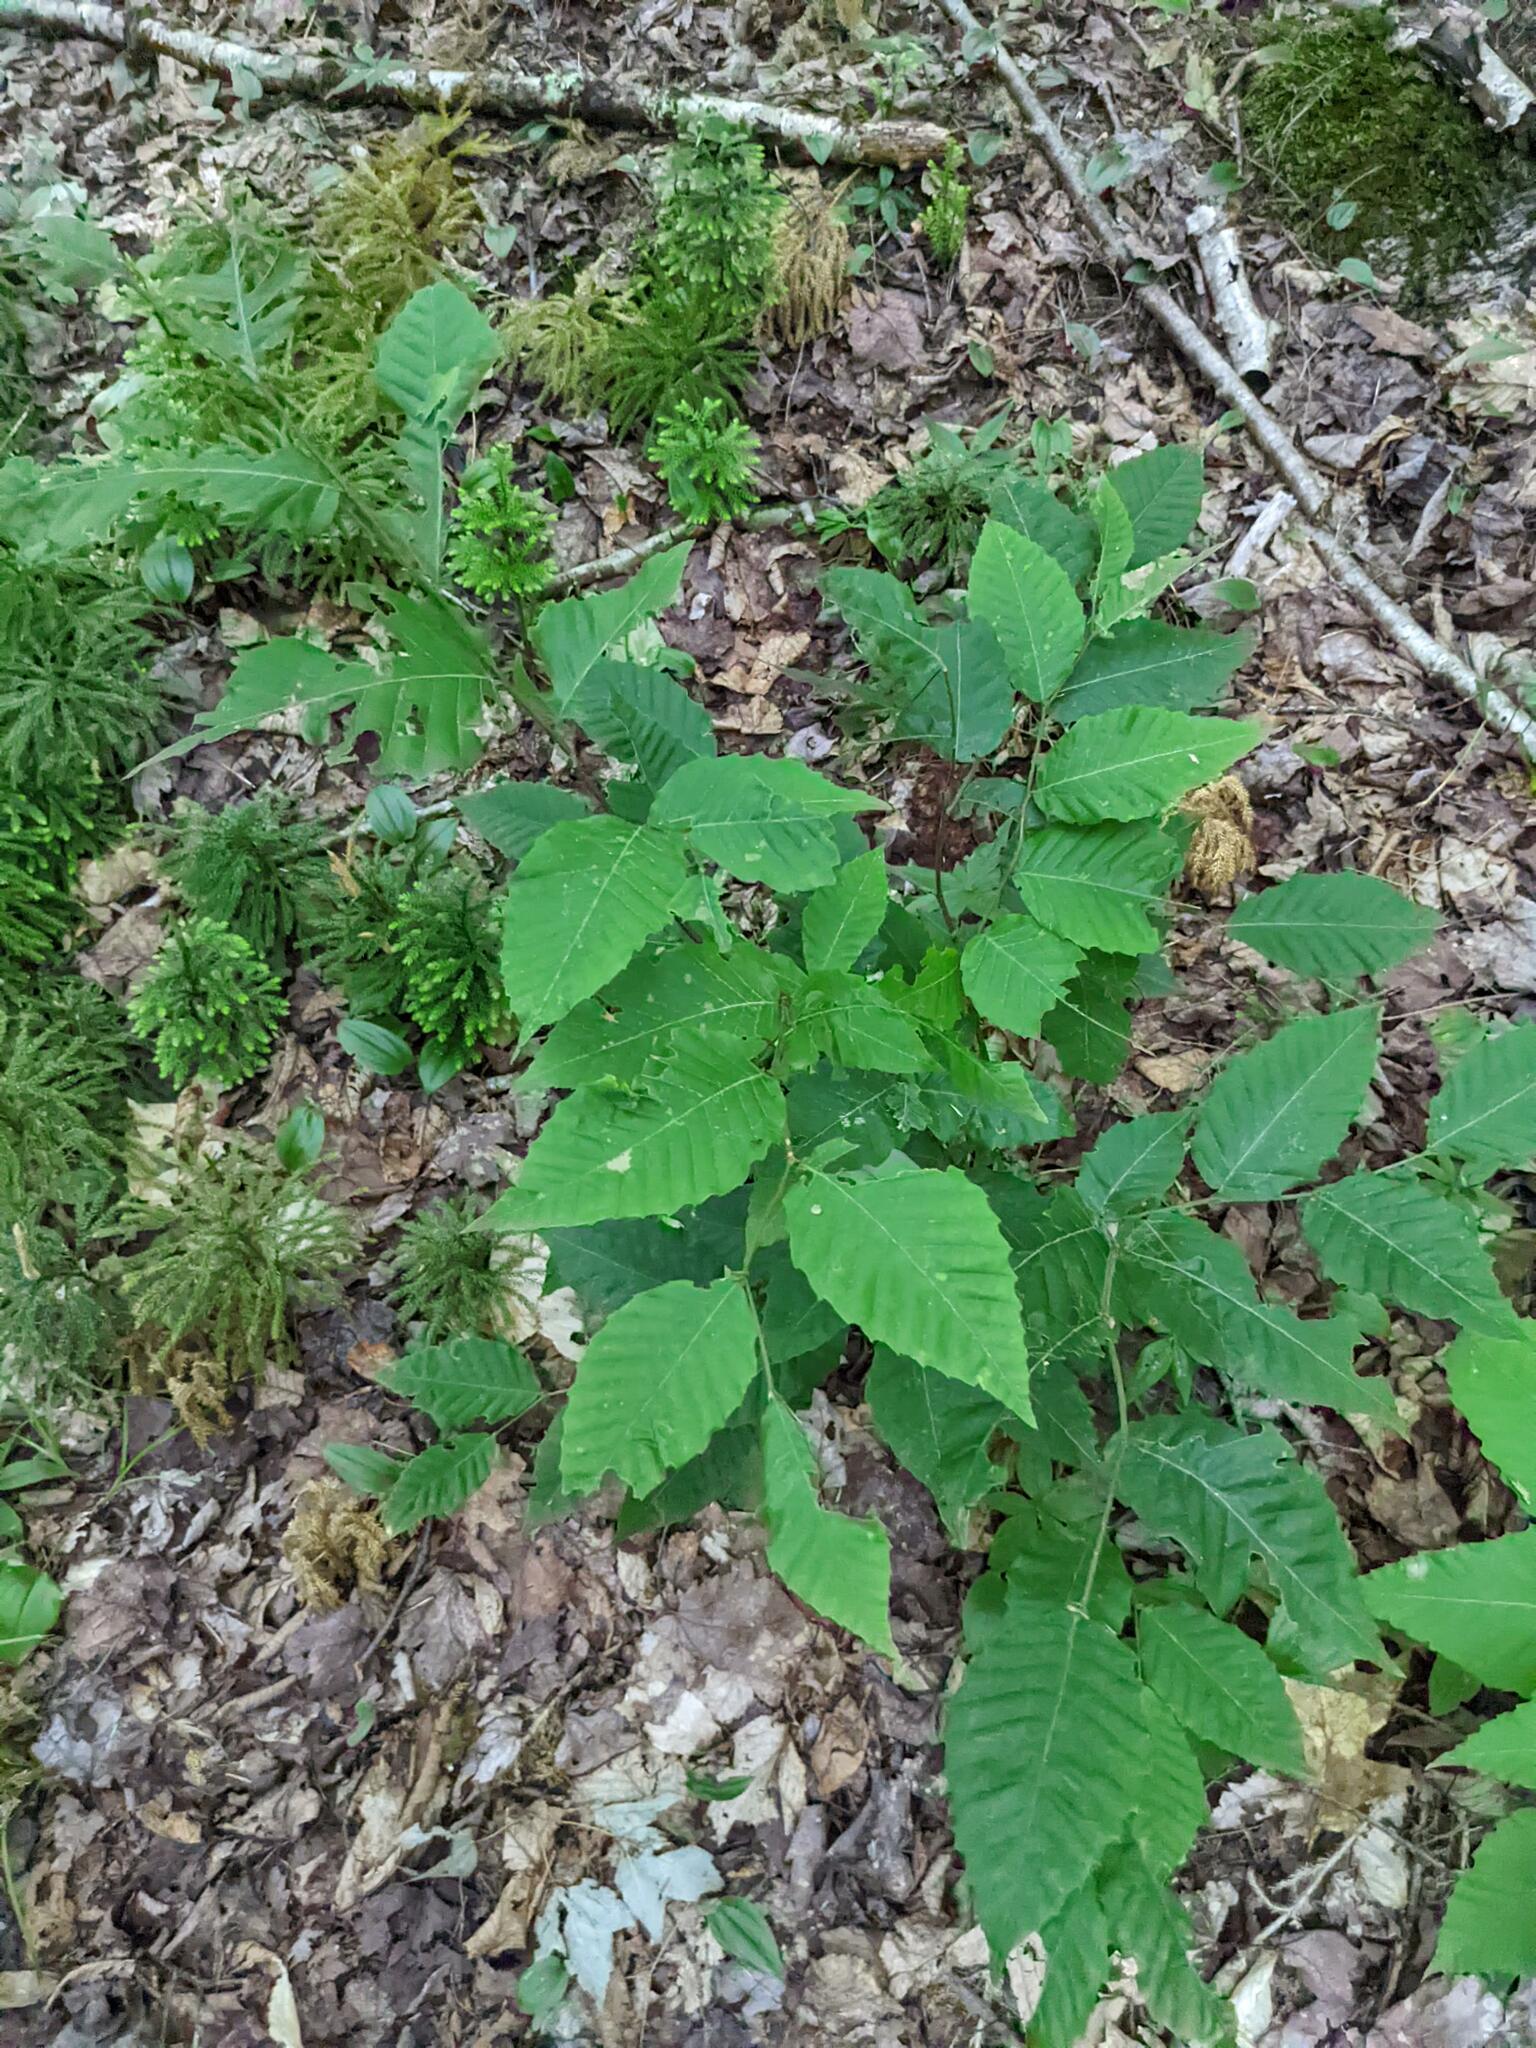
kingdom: Plantae
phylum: Tracheophyta
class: Magnoliopsida
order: Fagales
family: Fagaceae
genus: Fagus
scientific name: Fagus grandifolia
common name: American beech
